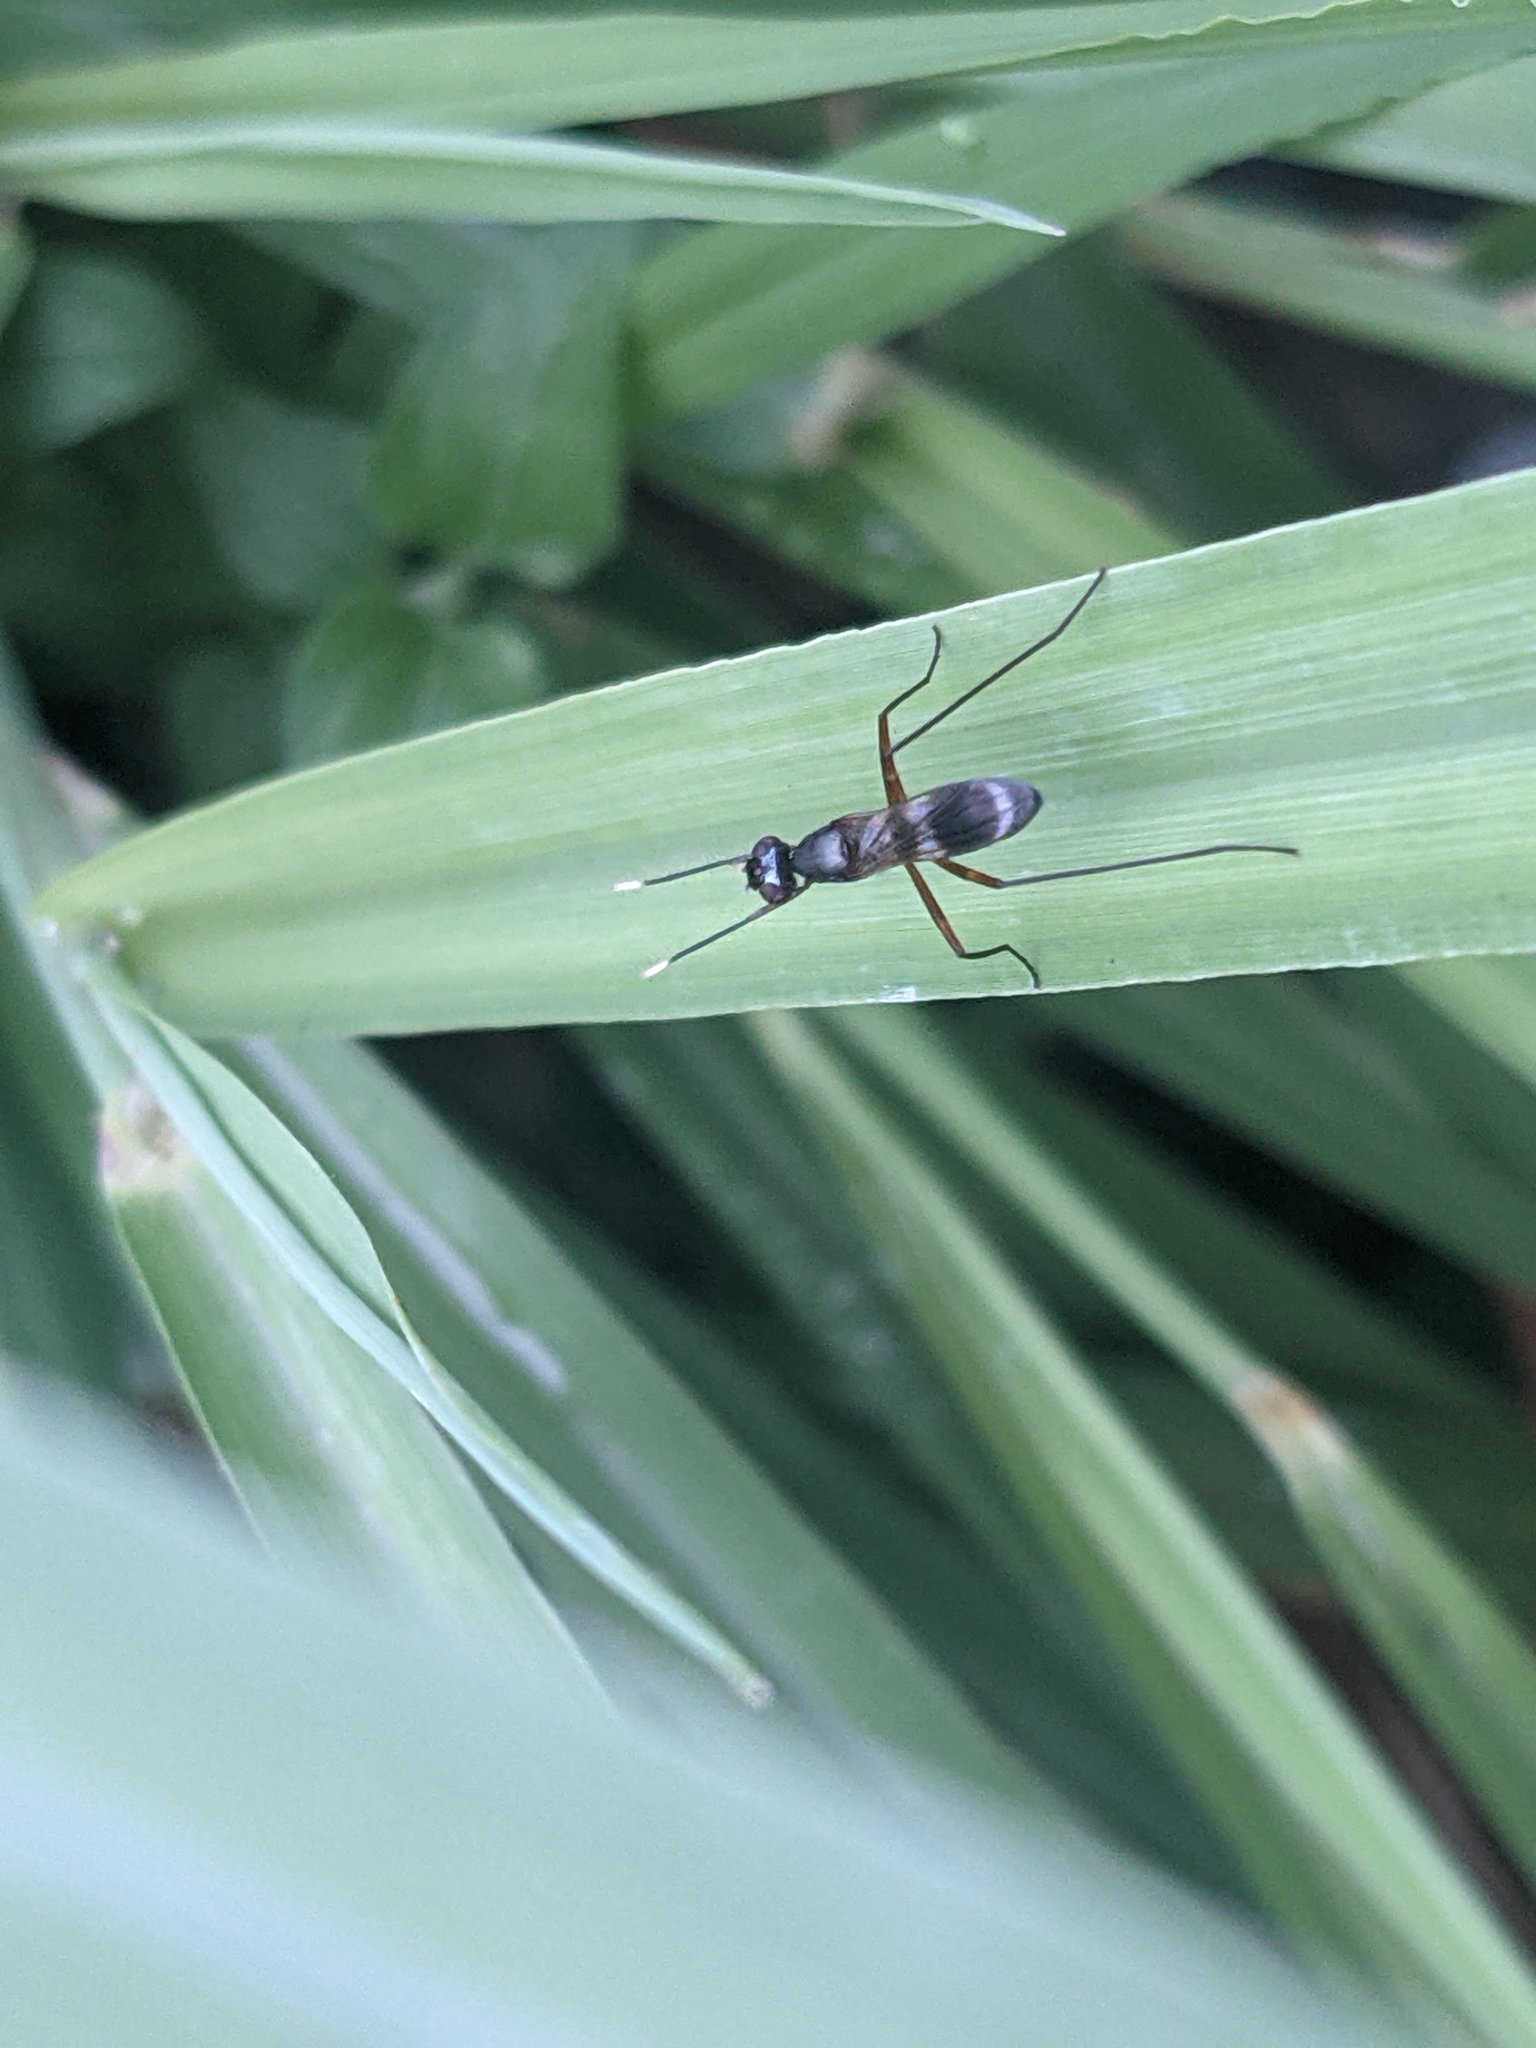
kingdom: Animalia
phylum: Arthropoda
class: Insecta
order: Diptera
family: Micropezidae
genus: Taeniaptera
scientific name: Taeniaptera trivittata
